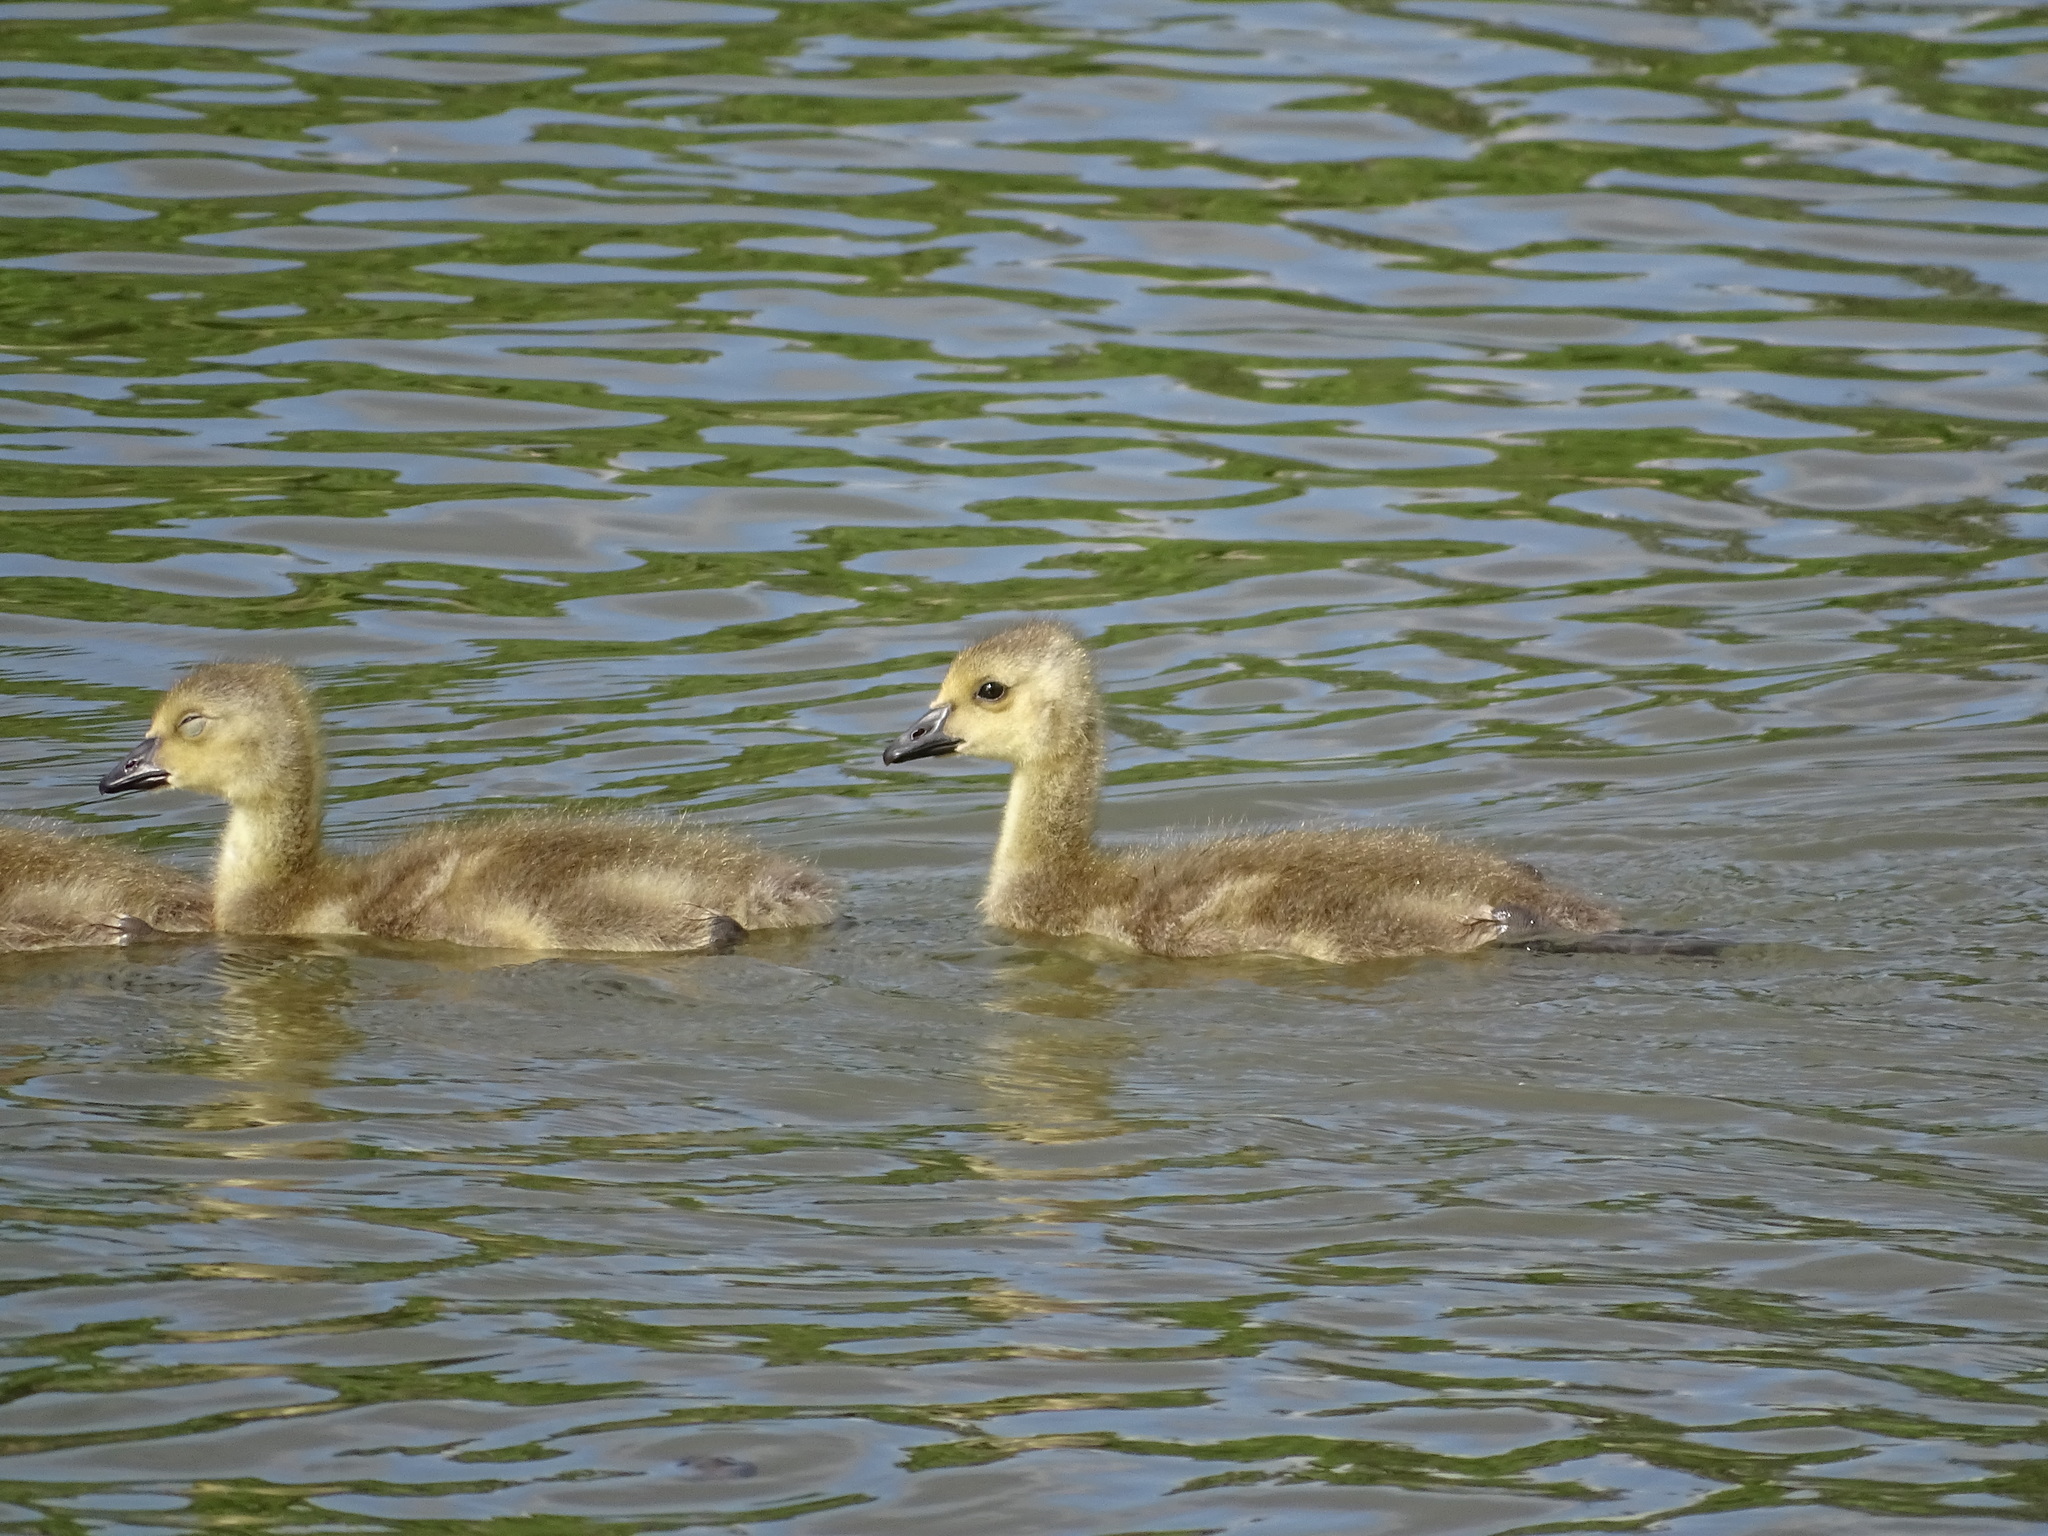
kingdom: Animalia
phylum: Chordata
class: Aves
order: Anseriformes
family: Anatidae
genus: Branta
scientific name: Branta canadensis
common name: Canada goose
